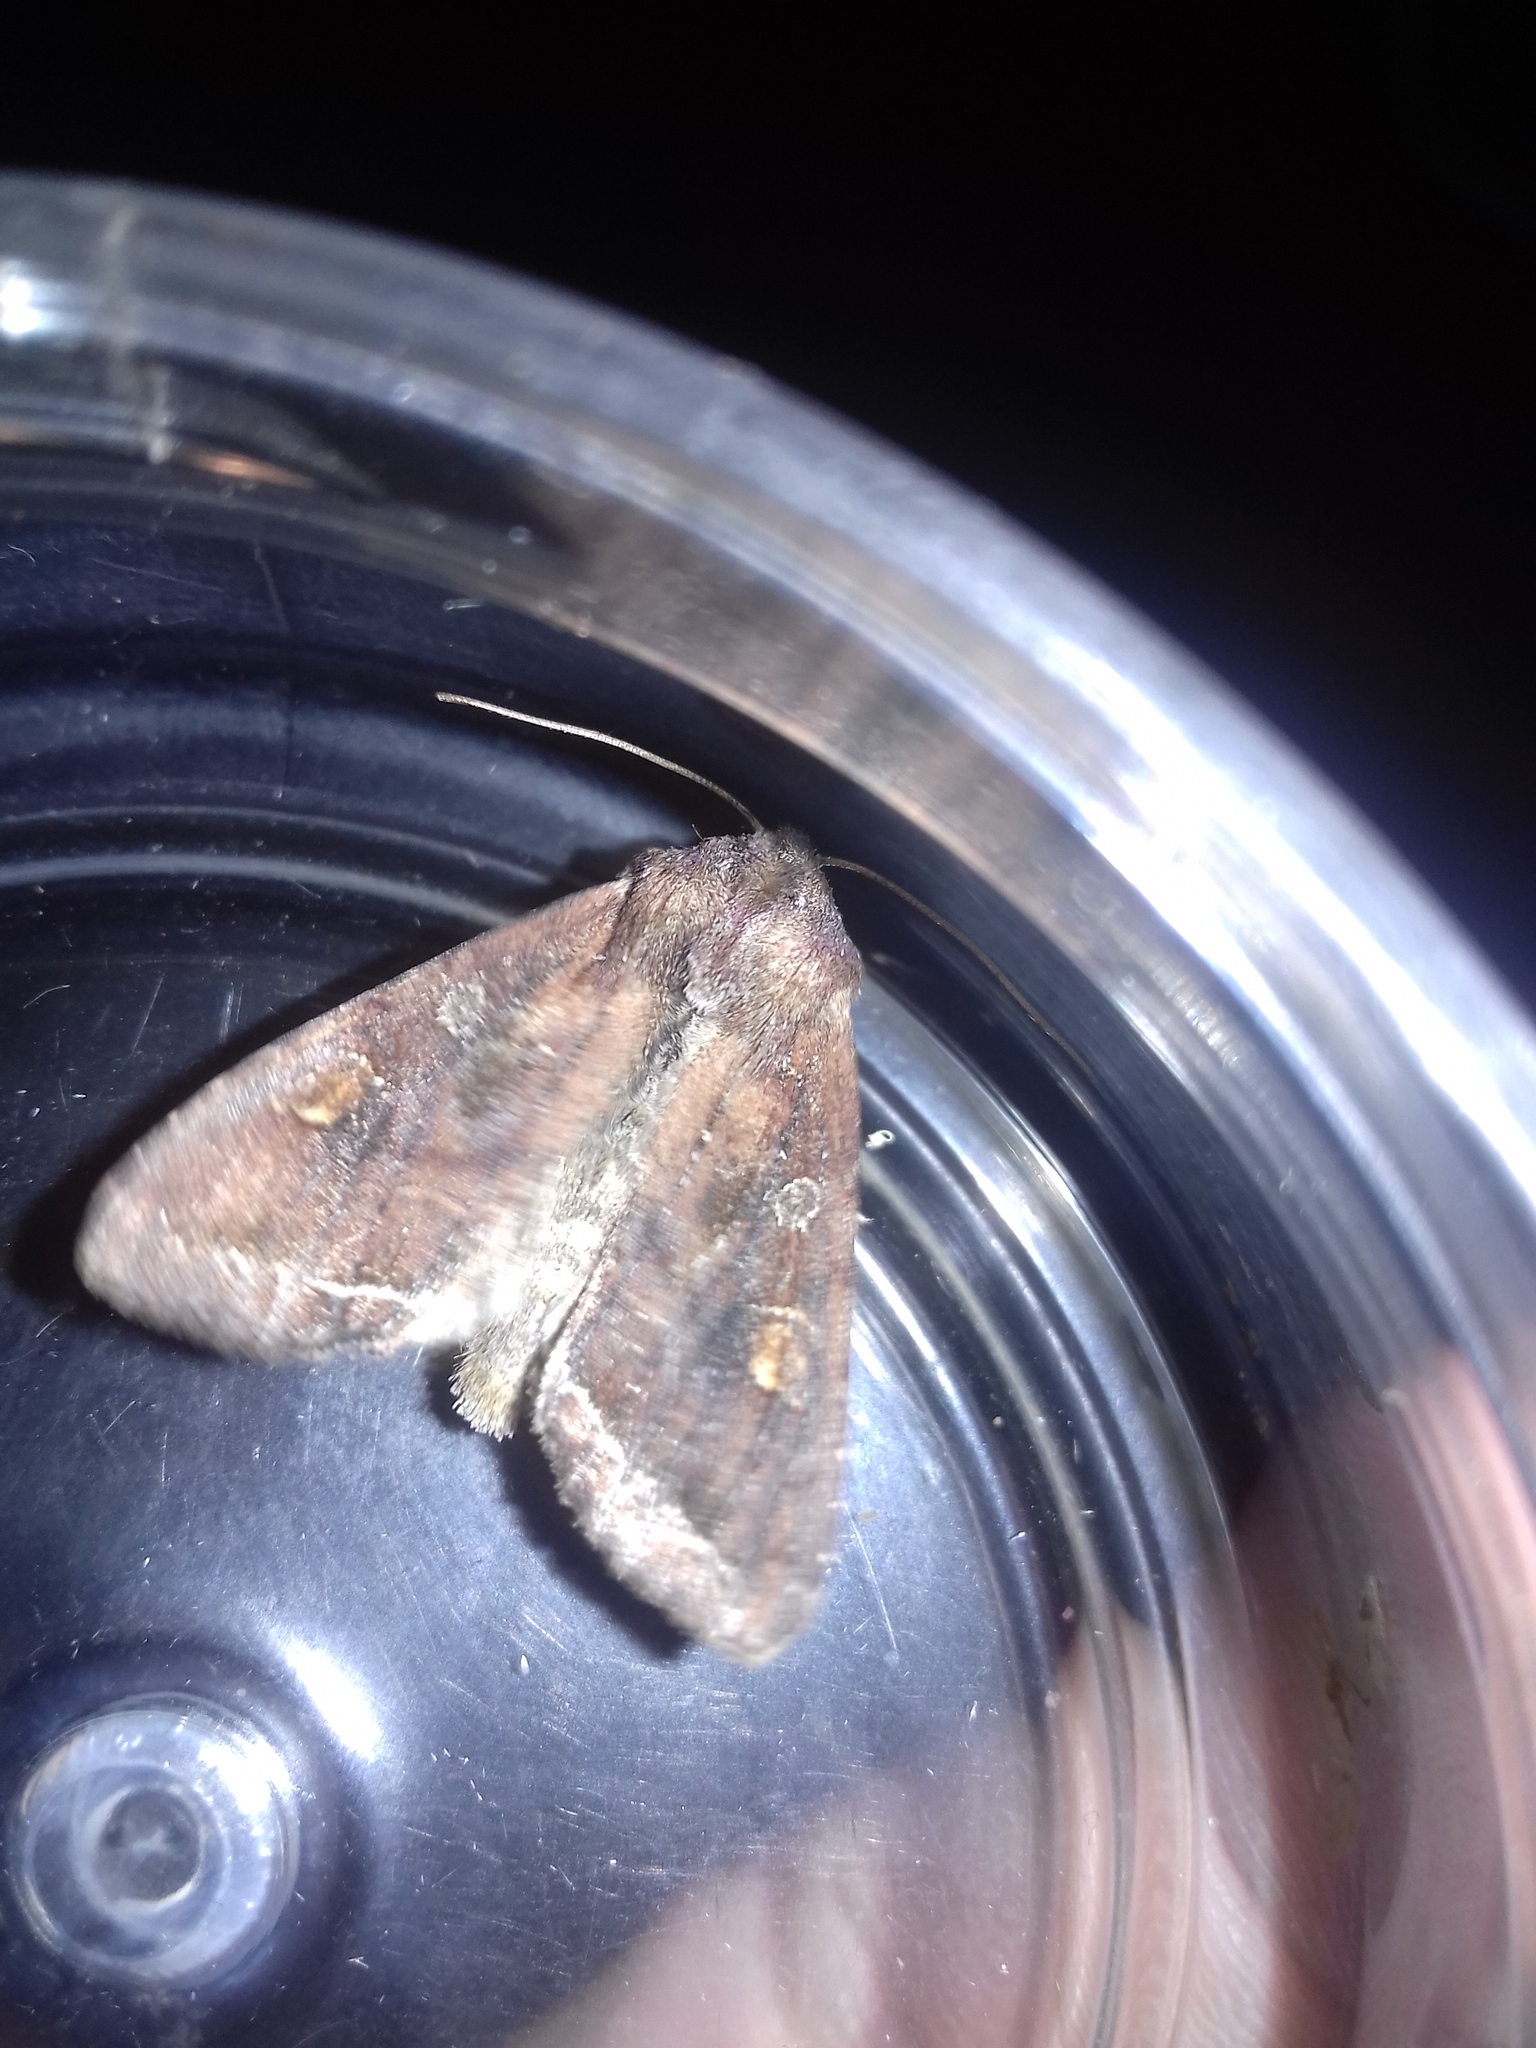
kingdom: Animalia
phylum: Arthropoda
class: Insecta
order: Lepidoptera
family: Noctuidae
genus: Lacanobia
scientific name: Lacanobia oleracea
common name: Bright-line brown-eye
